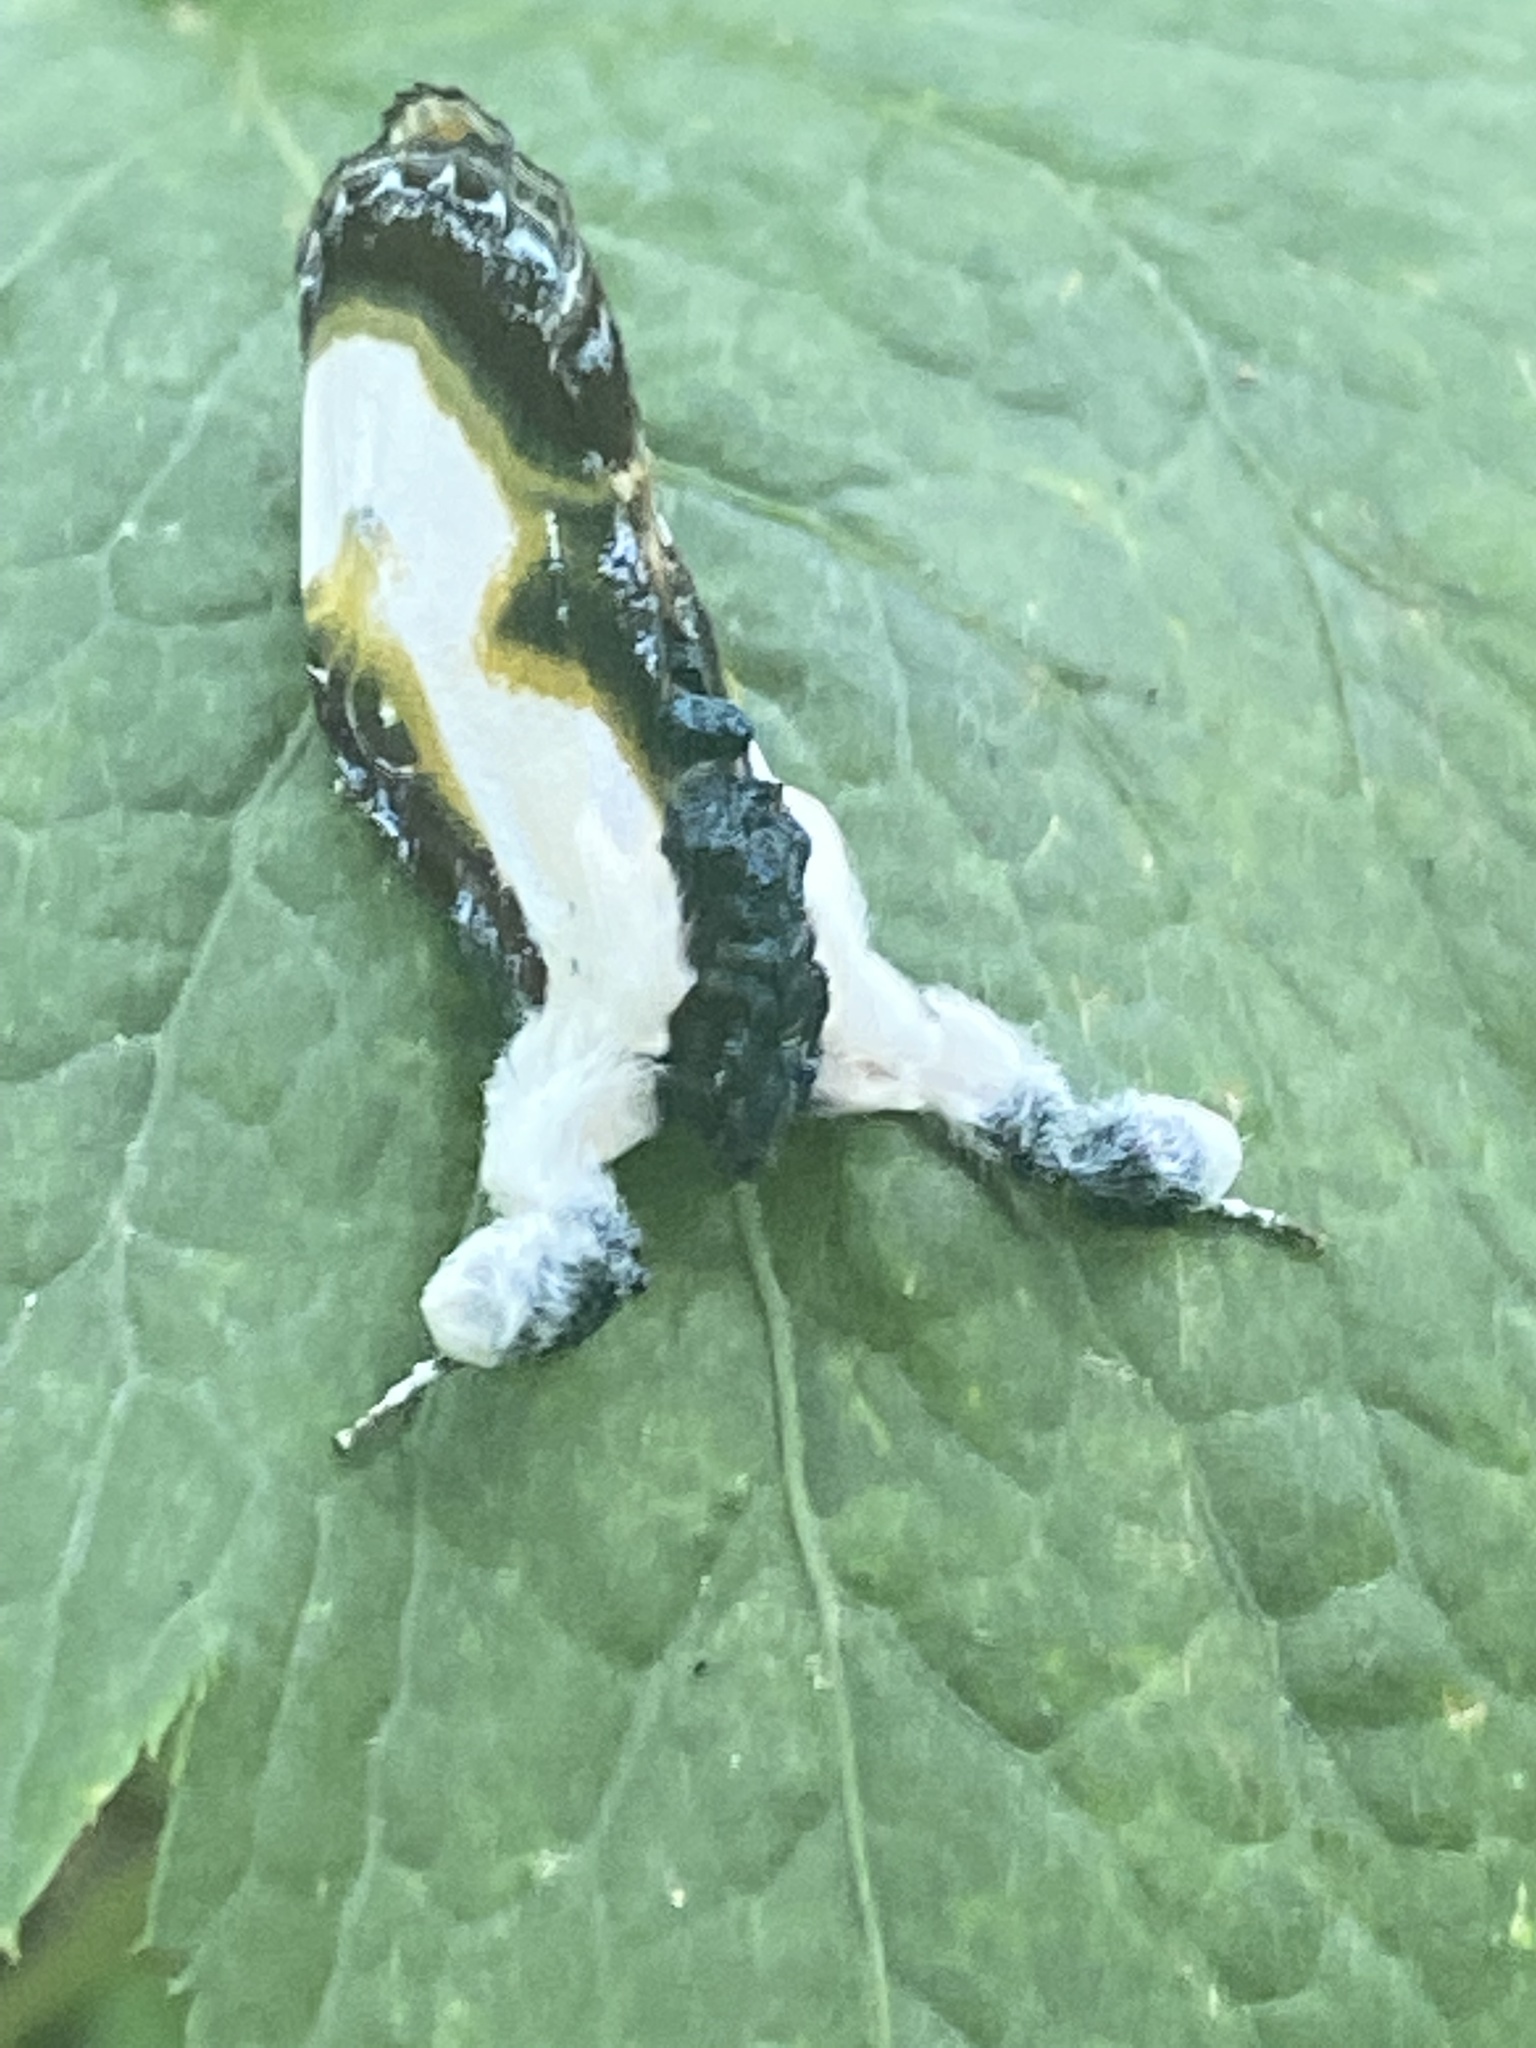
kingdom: Animalia
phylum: Arthropoda
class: Insecta
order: Lepidoptera
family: Noctuidae
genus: Eudryas
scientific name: Eudryas grata
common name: Beautiful wood-nymph
